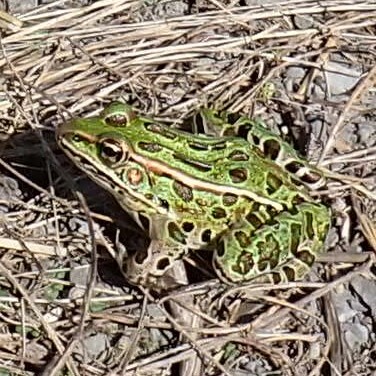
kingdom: Animalia
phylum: Chordata
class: Amphibia
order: Anura
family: Ranidae
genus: Lithobates
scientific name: Lithobates pipiens
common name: Northern leopard frog
